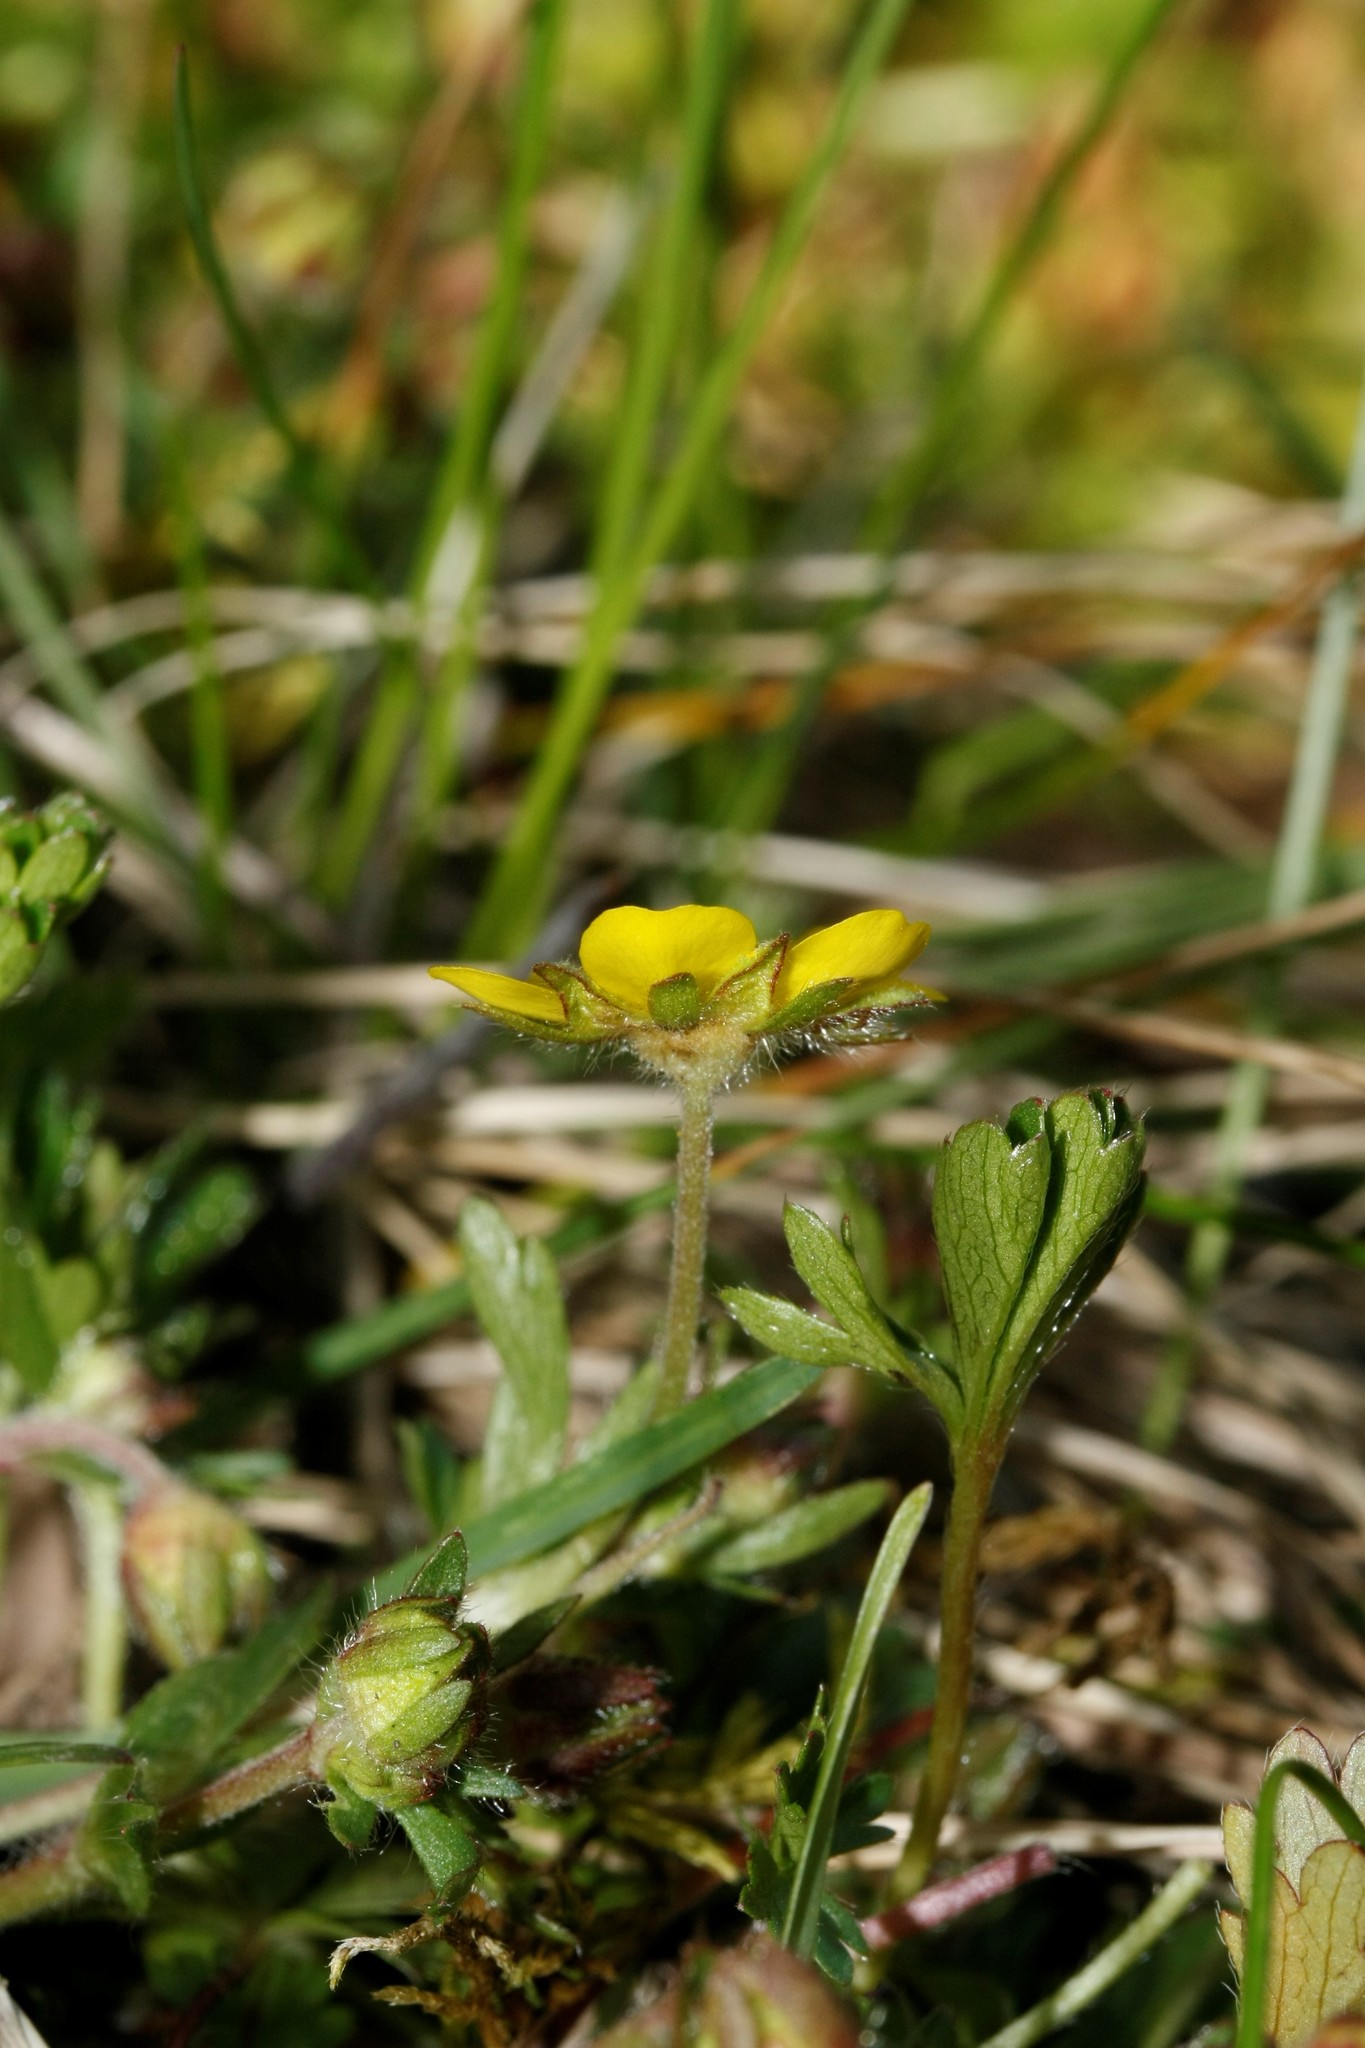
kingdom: Plantae
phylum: Tracheophyta
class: Magnoliopsida
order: Rosales
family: Rosaceae
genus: Potentilla
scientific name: Potentilla verna
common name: Spring cinquefoil
